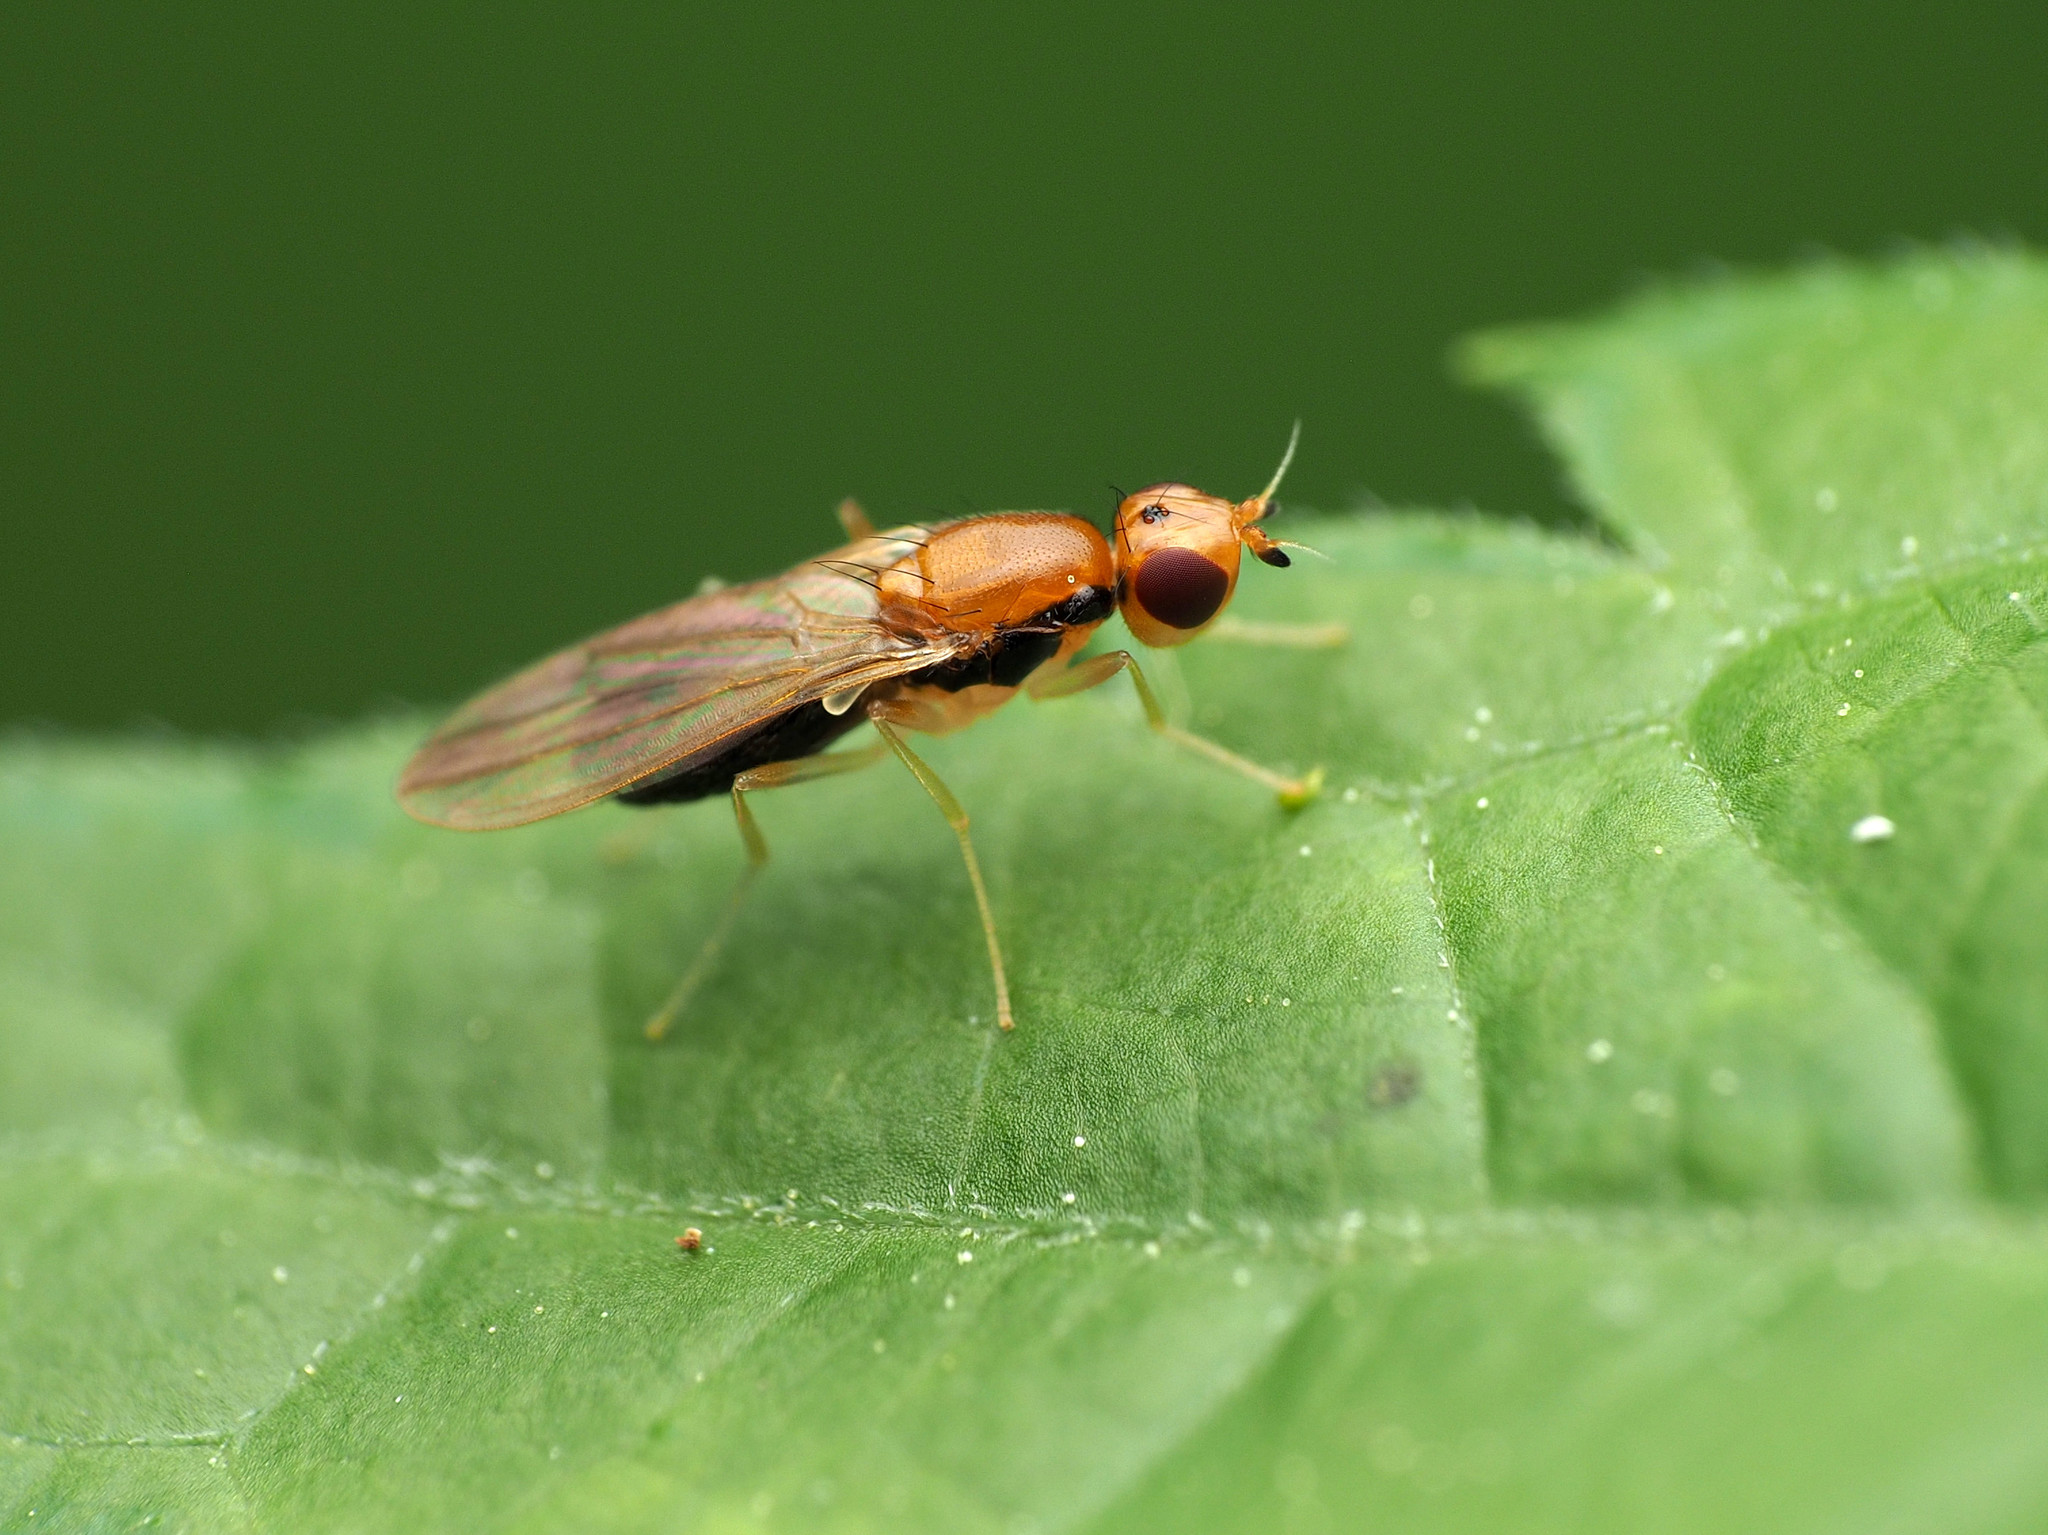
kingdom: Animalia
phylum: Arthropoda
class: Insecta
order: Diptera
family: Psilidae
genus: Psila
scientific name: Psila lateralis
